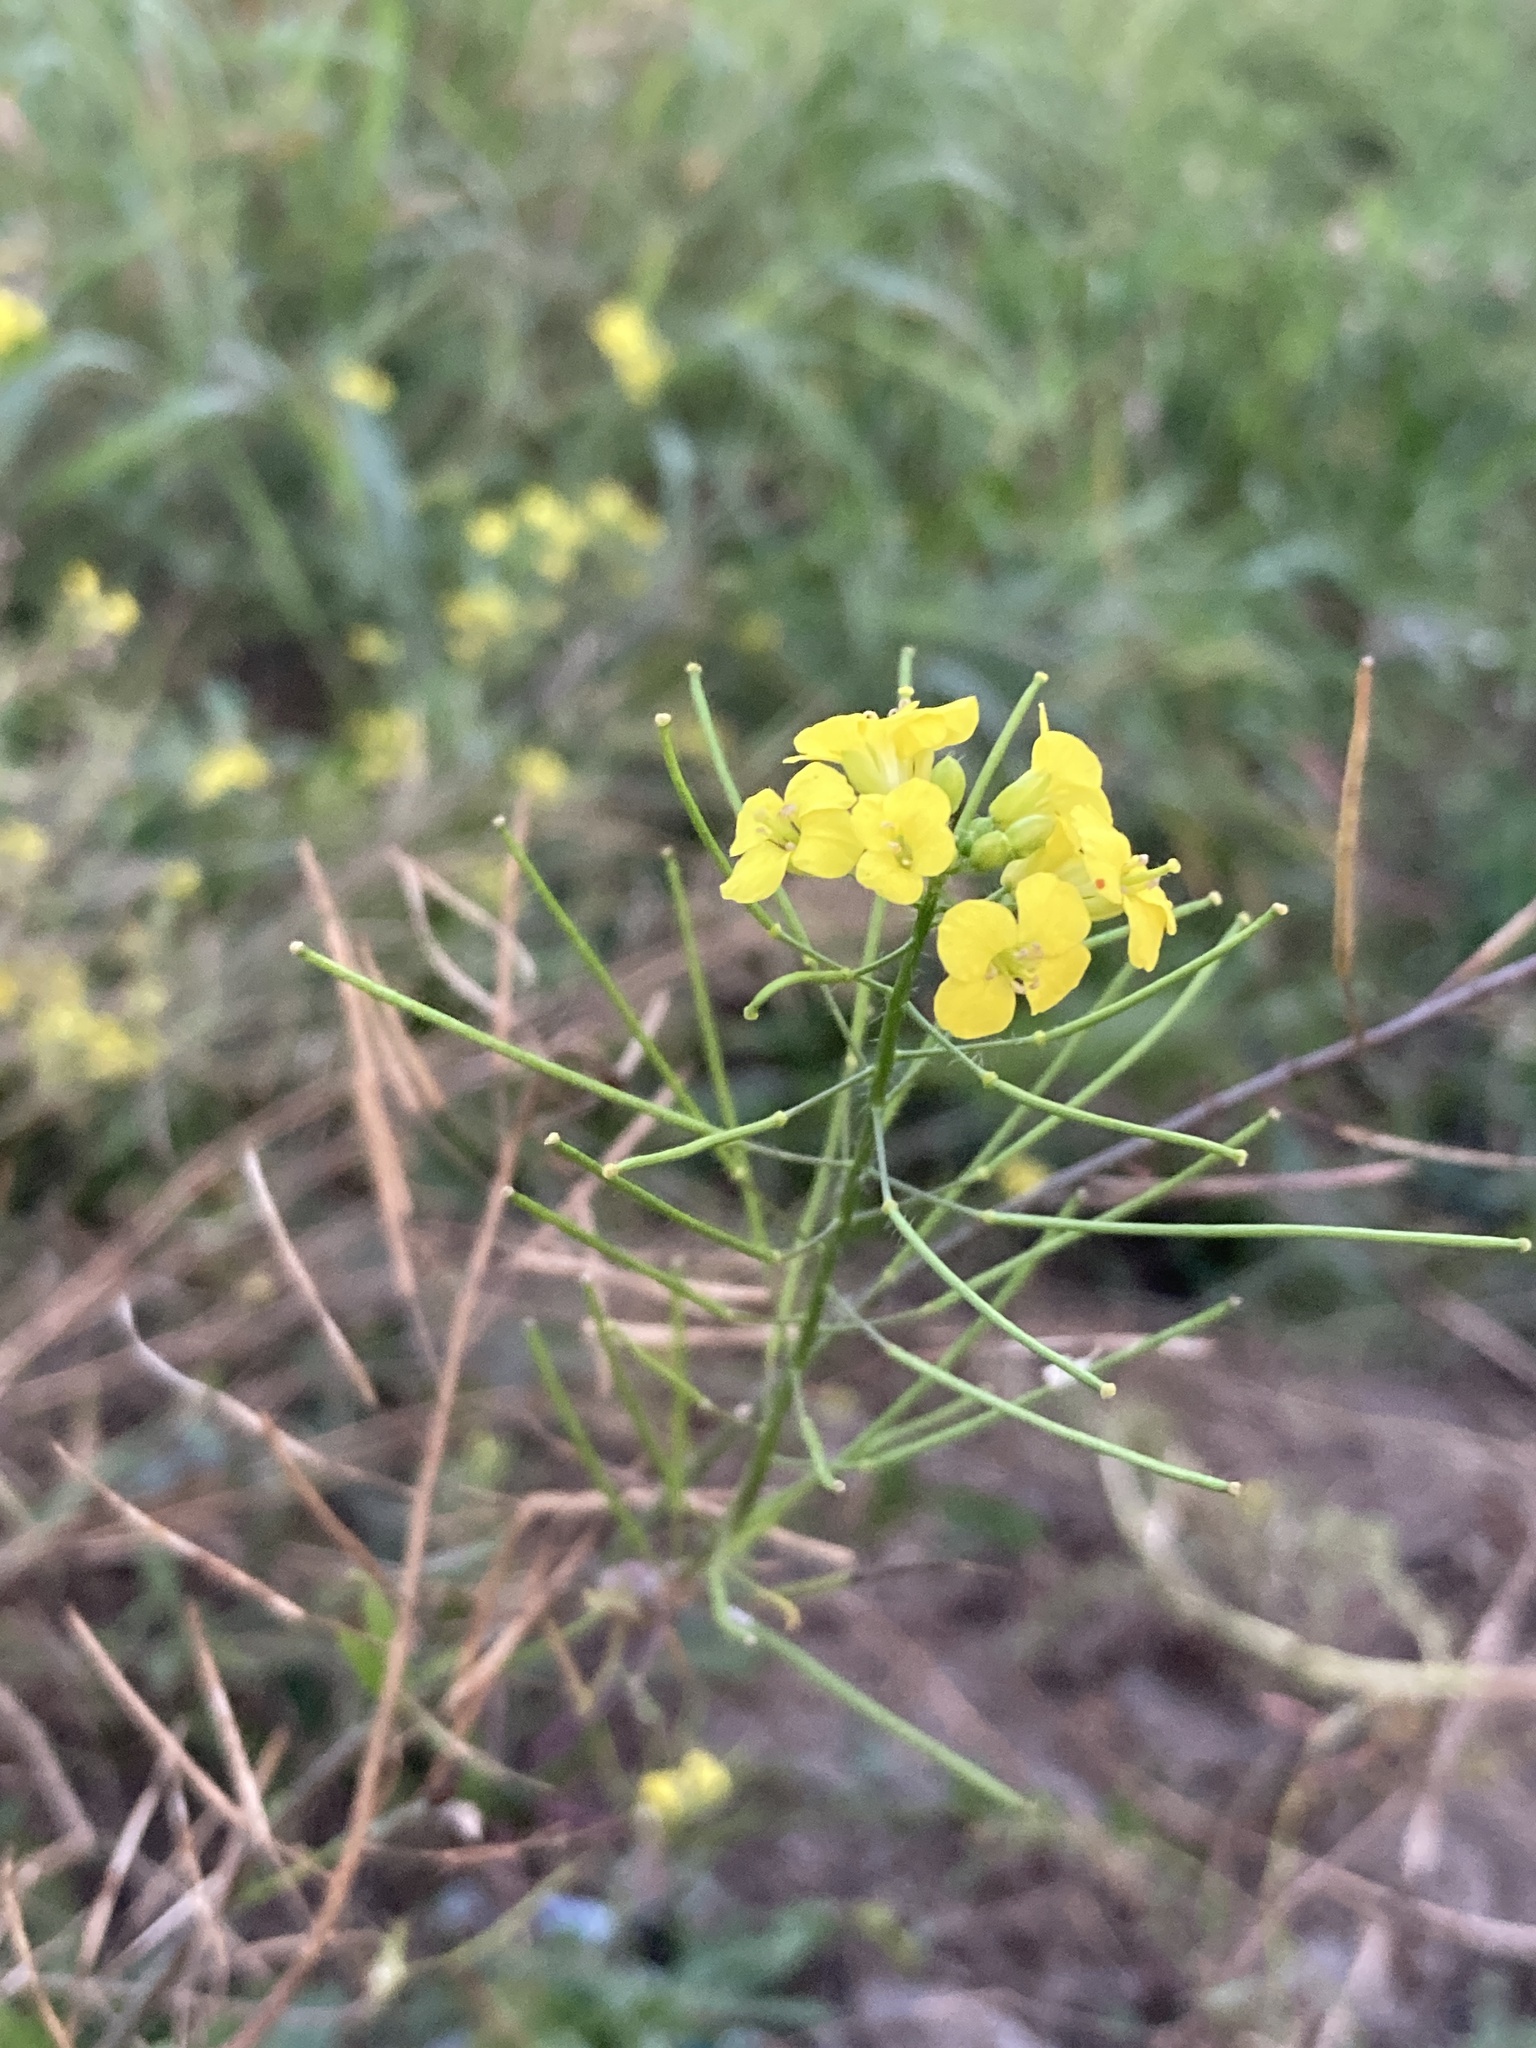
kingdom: Plantae
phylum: Tracheophyta
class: Magnoliopsida
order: Brassicales
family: Brassicaceae
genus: Sisymbrium
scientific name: Sisymbrium loeselii
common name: False london-rocket
